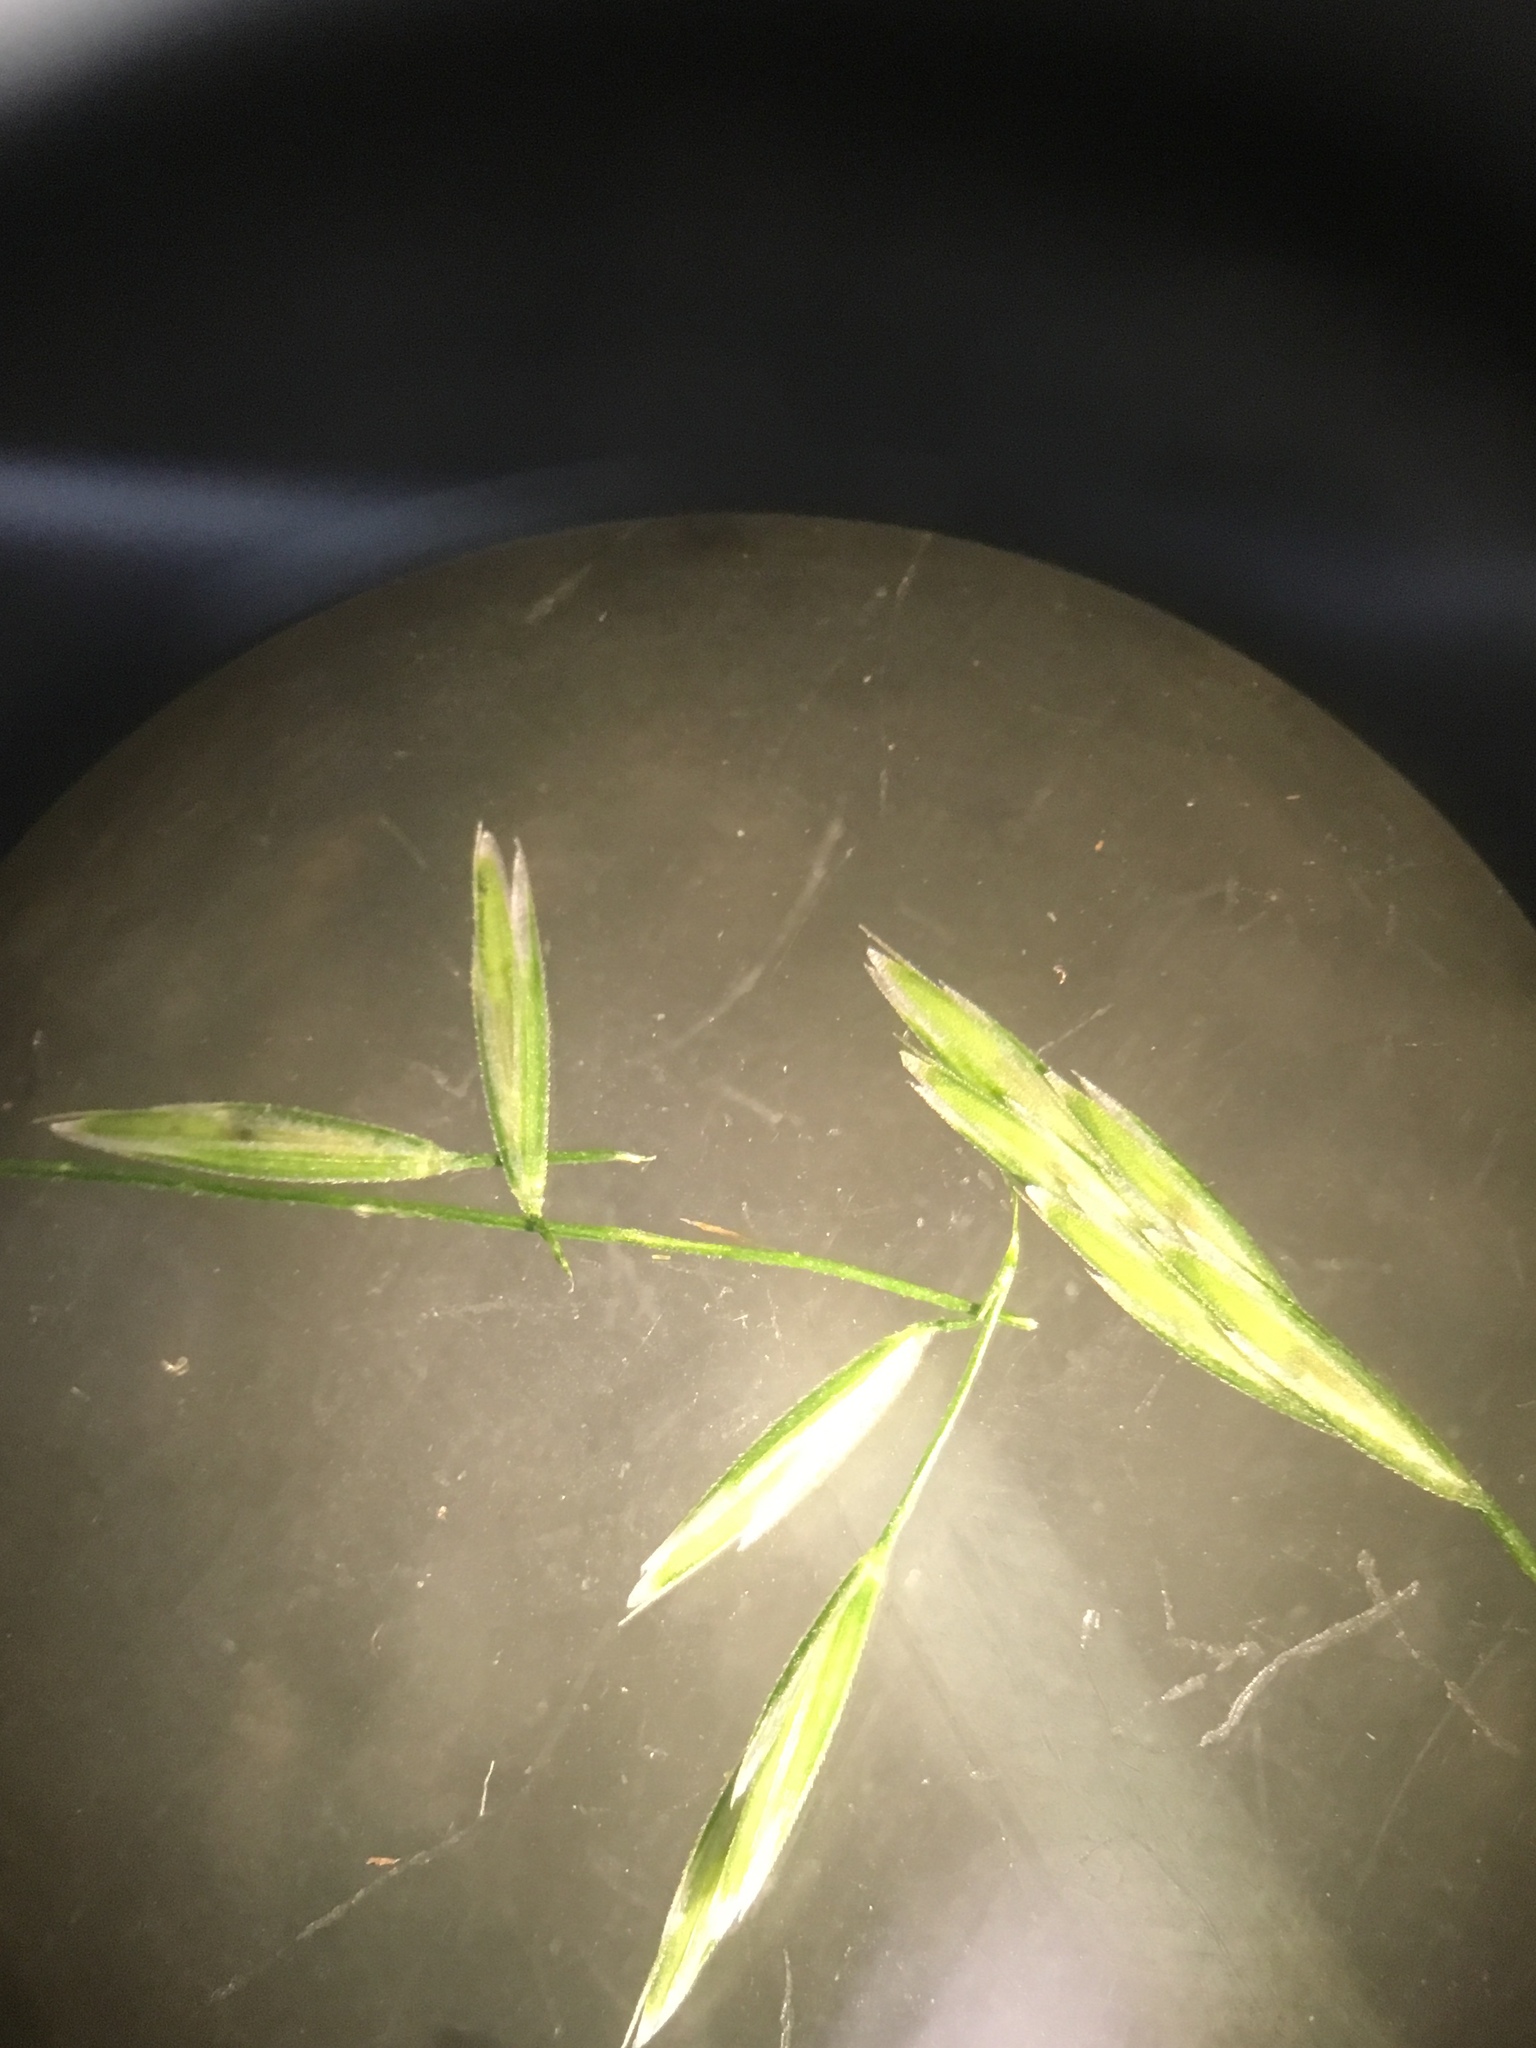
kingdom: Plantae
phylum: Tracheophyta
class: Liliopsida
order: Poales
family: Poaceae
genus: Cinna
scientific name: Cinna arundinacea
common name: Stout woodreed
